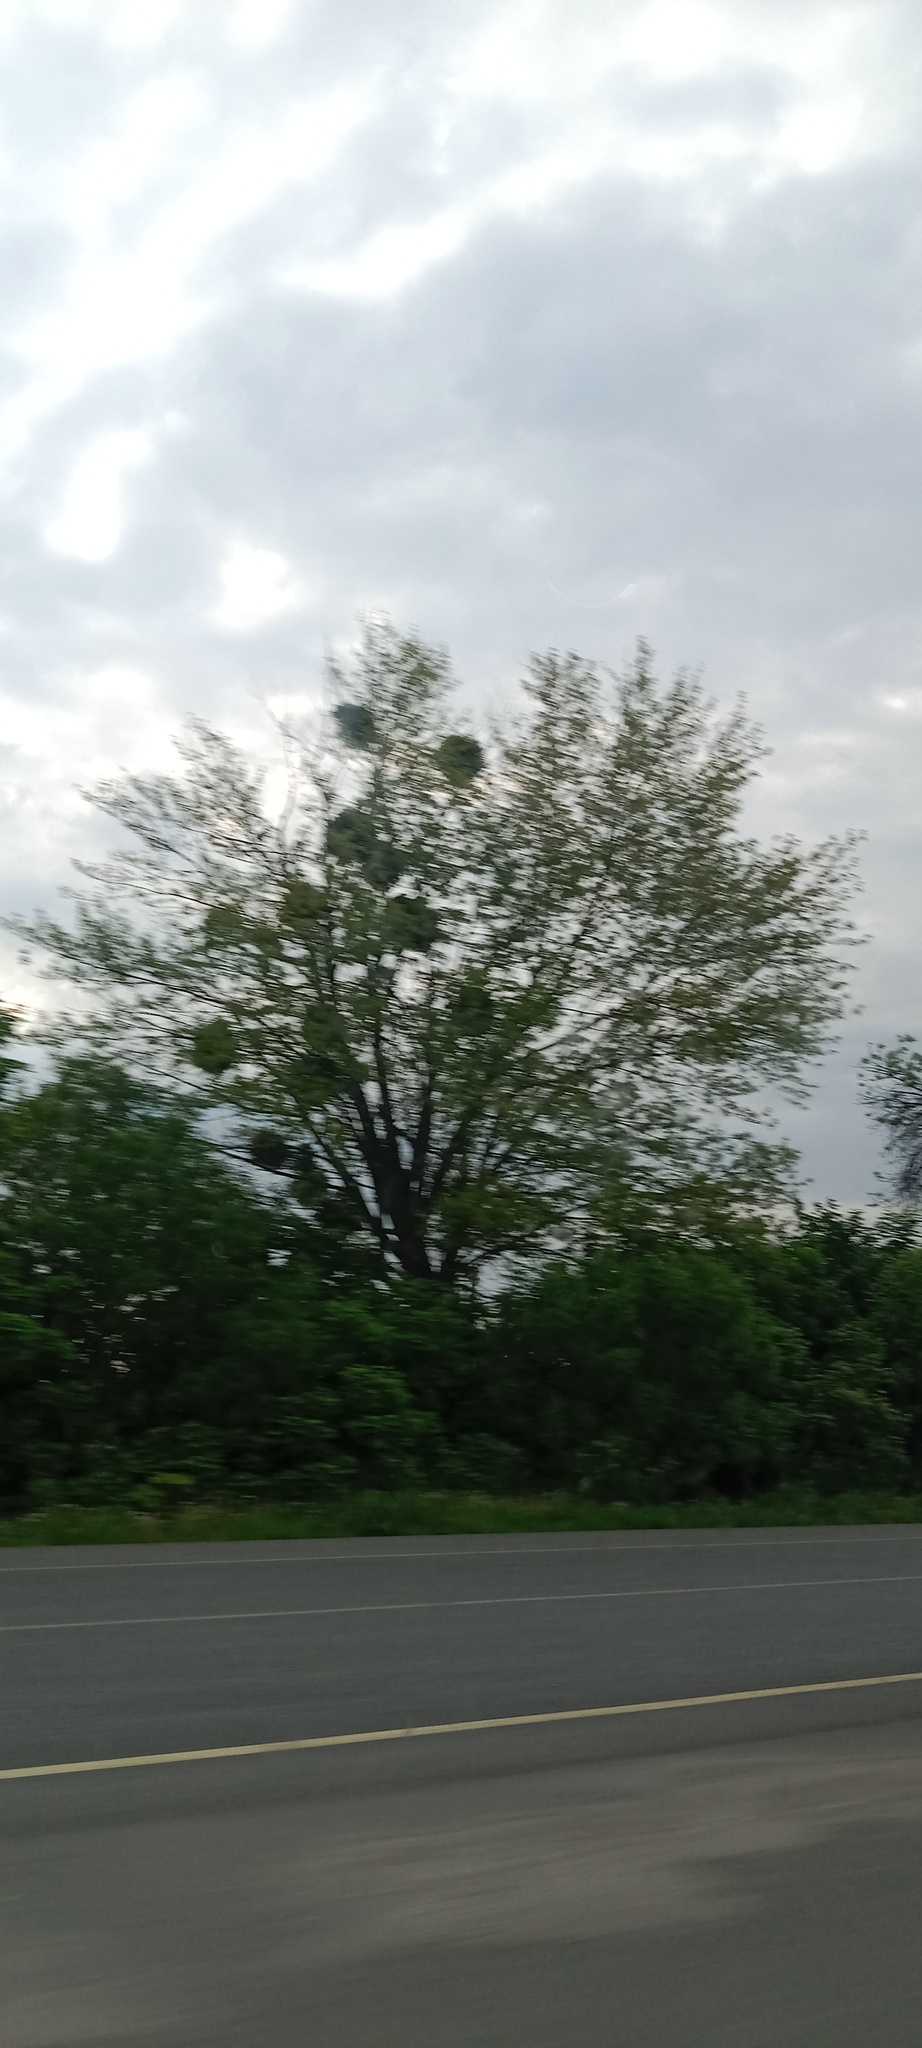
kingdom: Plantae
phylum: Tracheophyta
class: Magnoliopsida
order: Santalales
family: Viscaceae
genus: Viscum
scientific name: Viscum album
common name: Mistletoe
